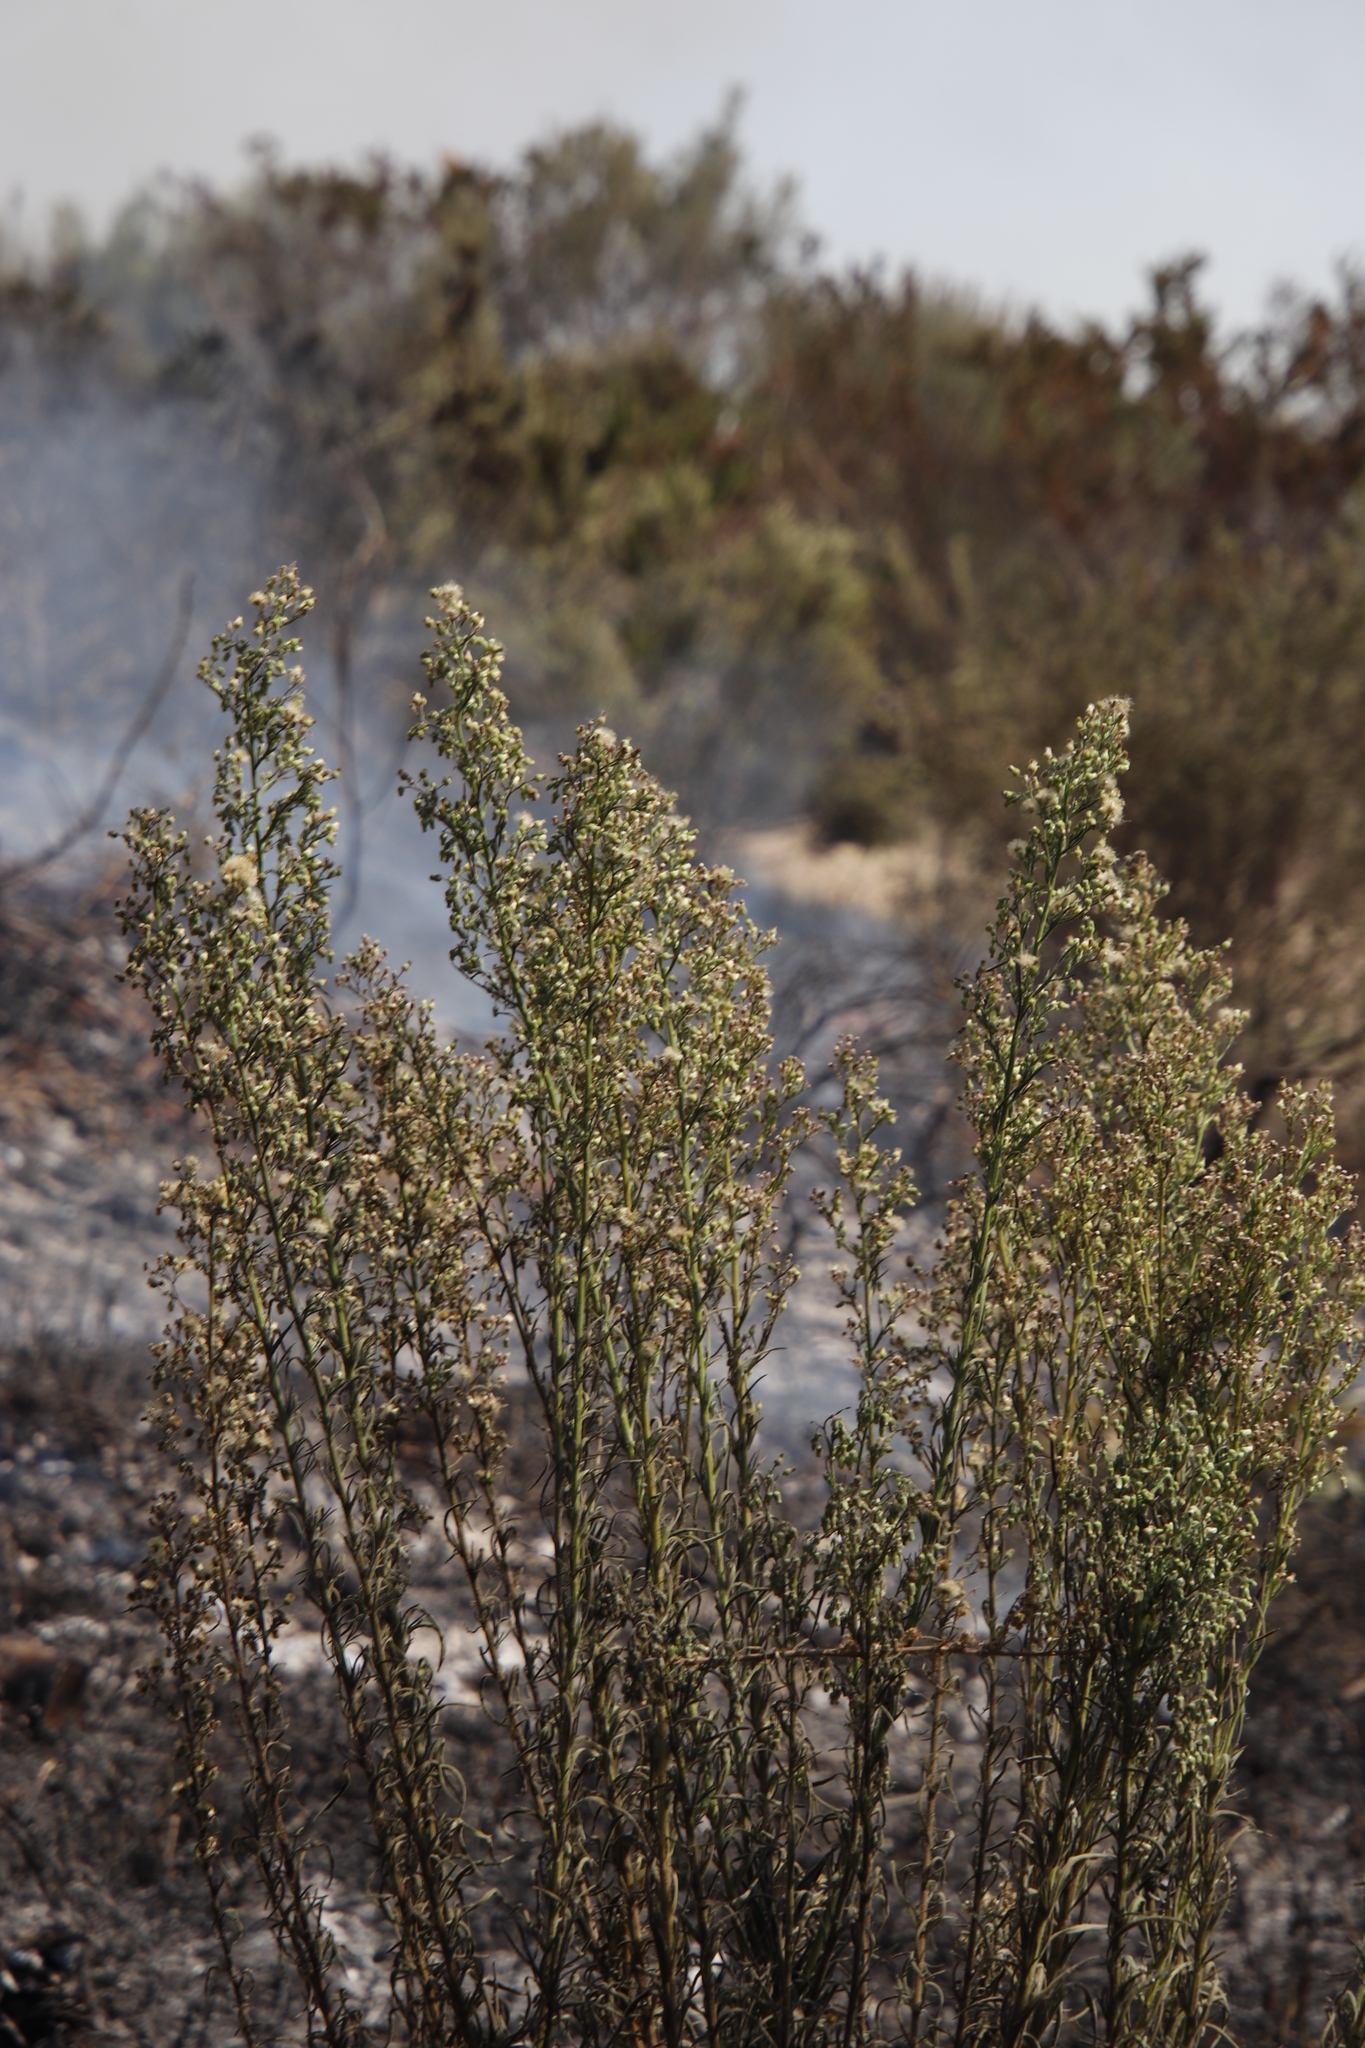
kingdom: Plantae
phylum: Tracheophyta
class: Magnoliopsida
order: Asterales
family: Asteraceae
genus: Erigeron
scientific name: Erigeron sumatrensis
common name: Daisy
